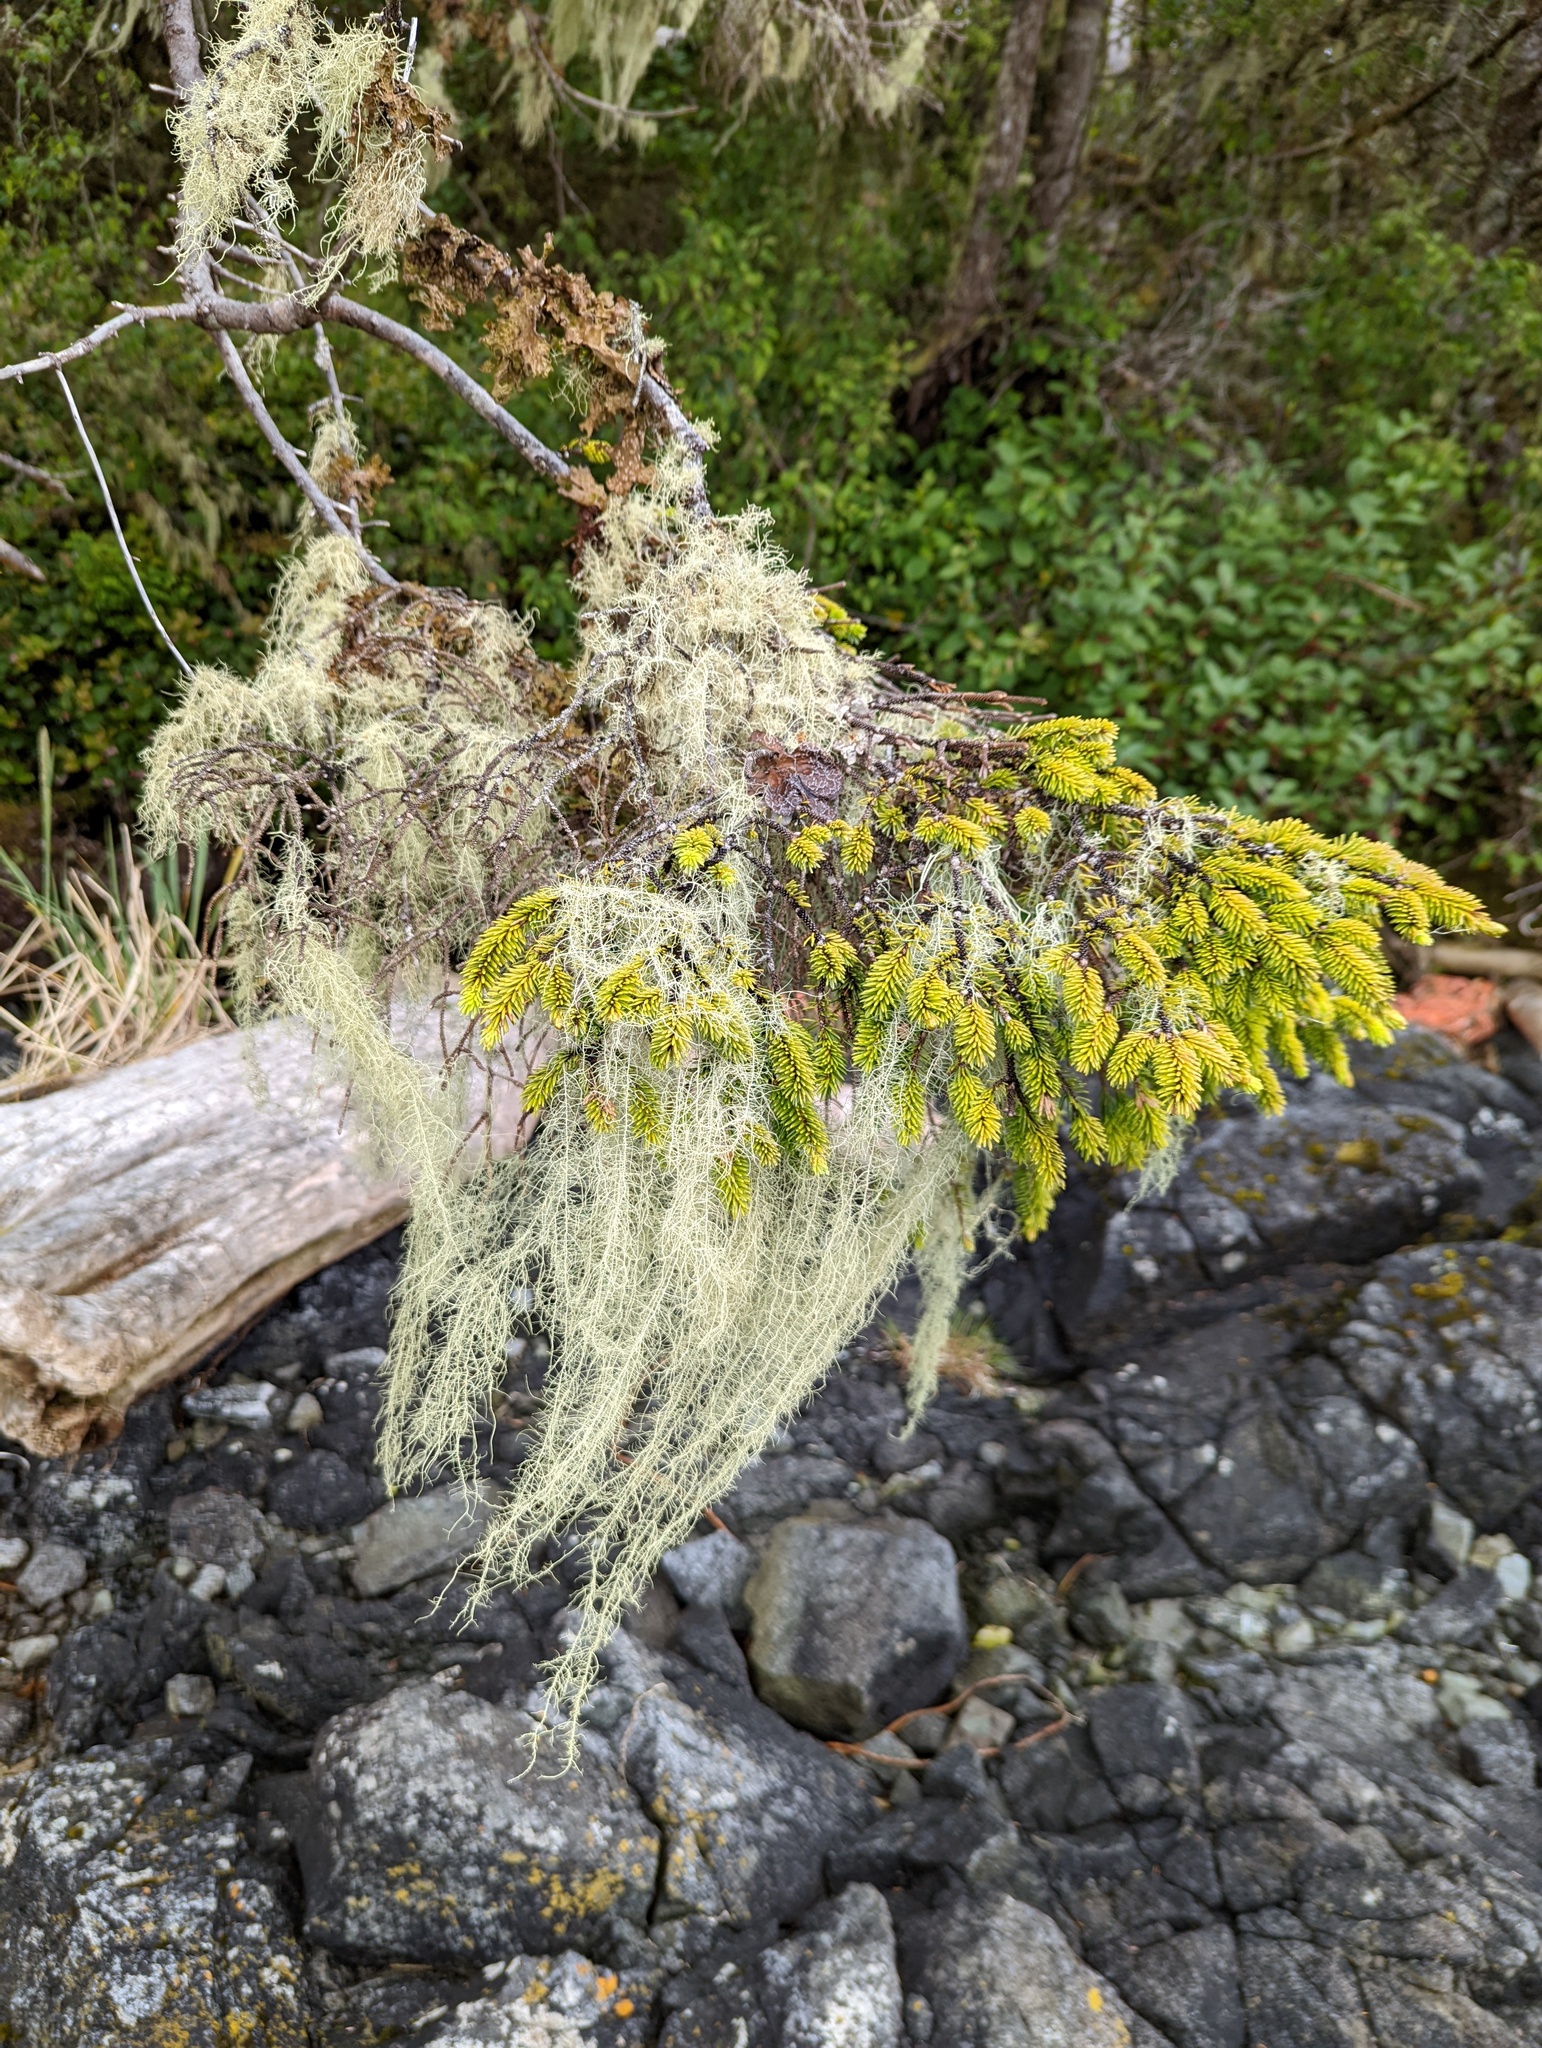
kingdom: Fungi
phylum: Ascomycota
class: Lecanoromycetes
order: Lecanorales
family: Parmeliaceae
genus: Dolichousnea
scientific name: Dolichousnea longissima
